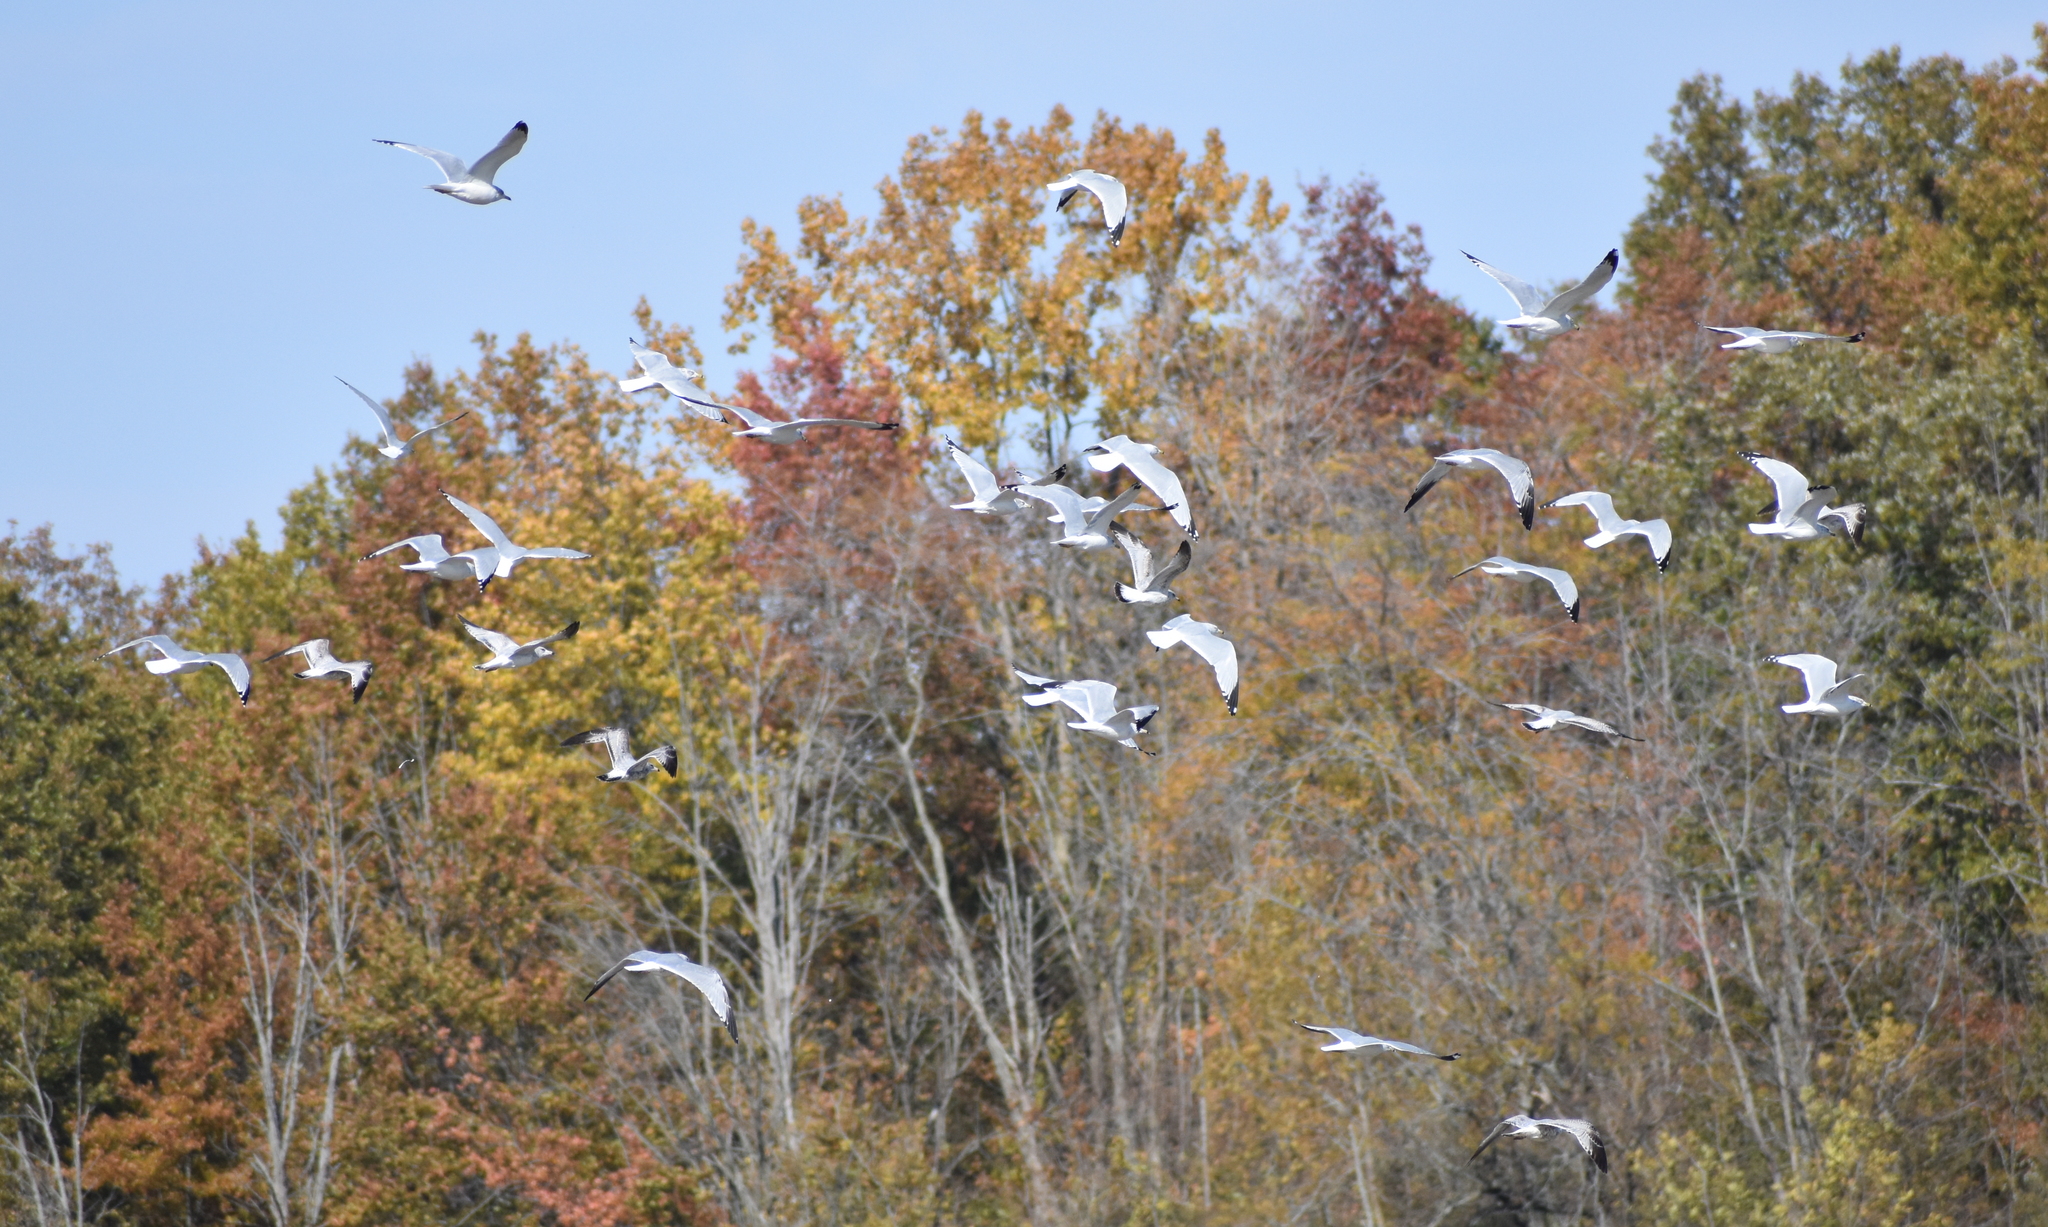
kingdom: Animalia
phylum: Chordata
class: Aves
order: Charadriiformes
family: Laridae
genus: Larus
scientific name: Larus delawarensis
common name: Ring-billed gull
